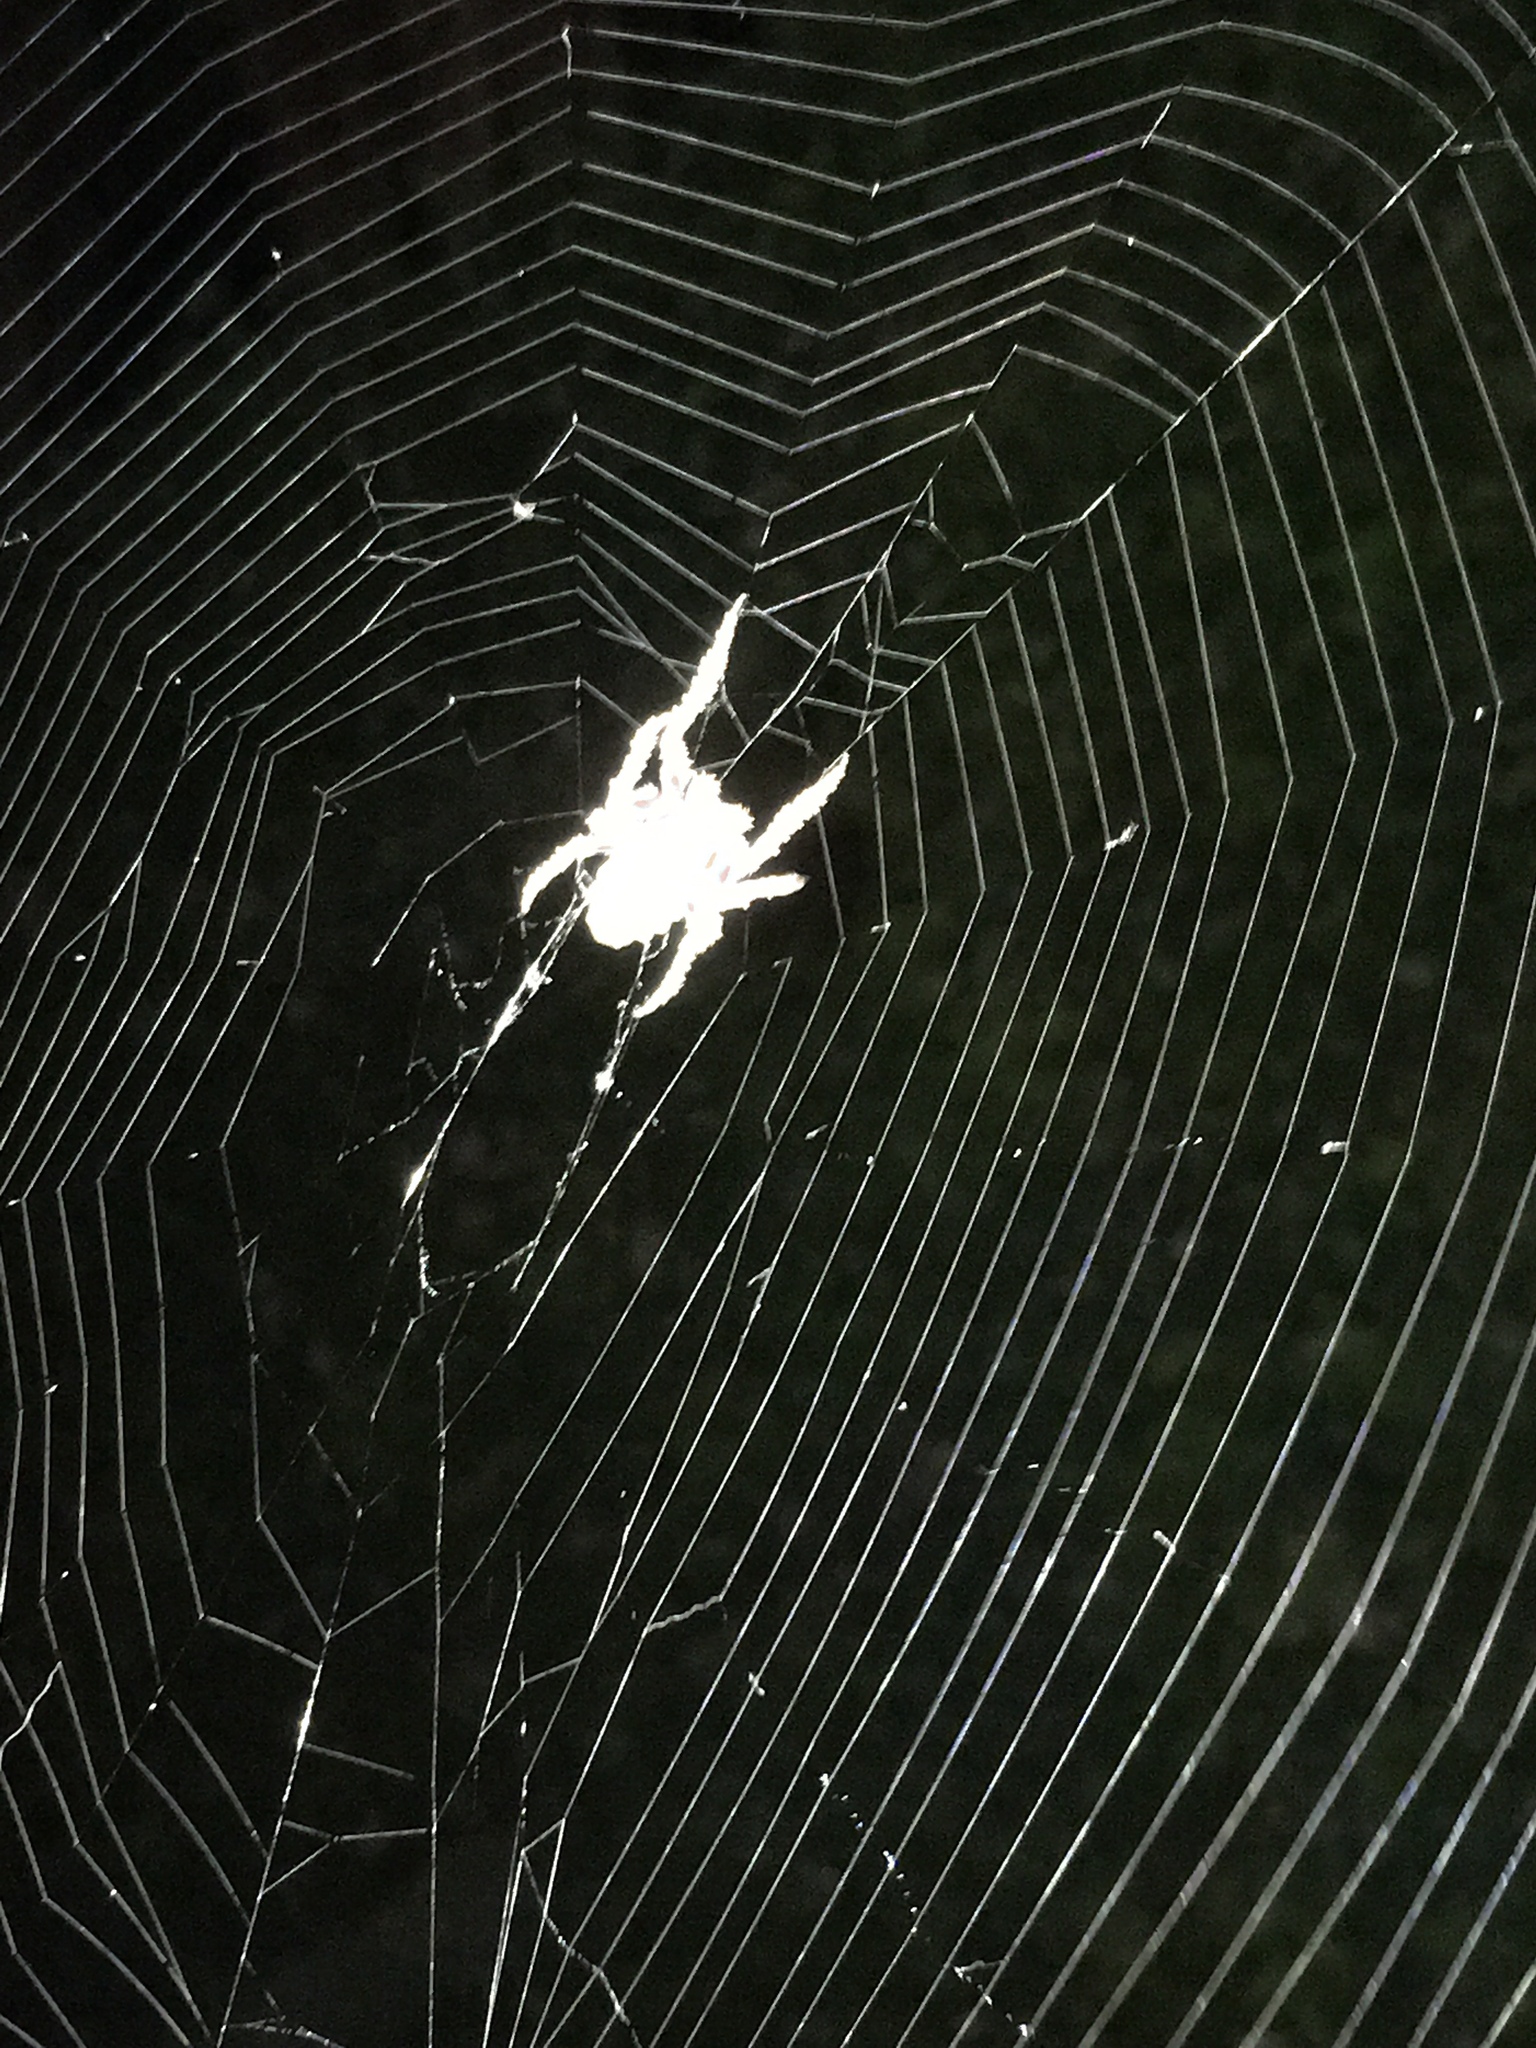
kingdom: Animalia
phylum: Arthropoda
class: Arachnida
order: Araneae
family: Araneidae
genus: Parawixia
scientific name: Parawixia audax
